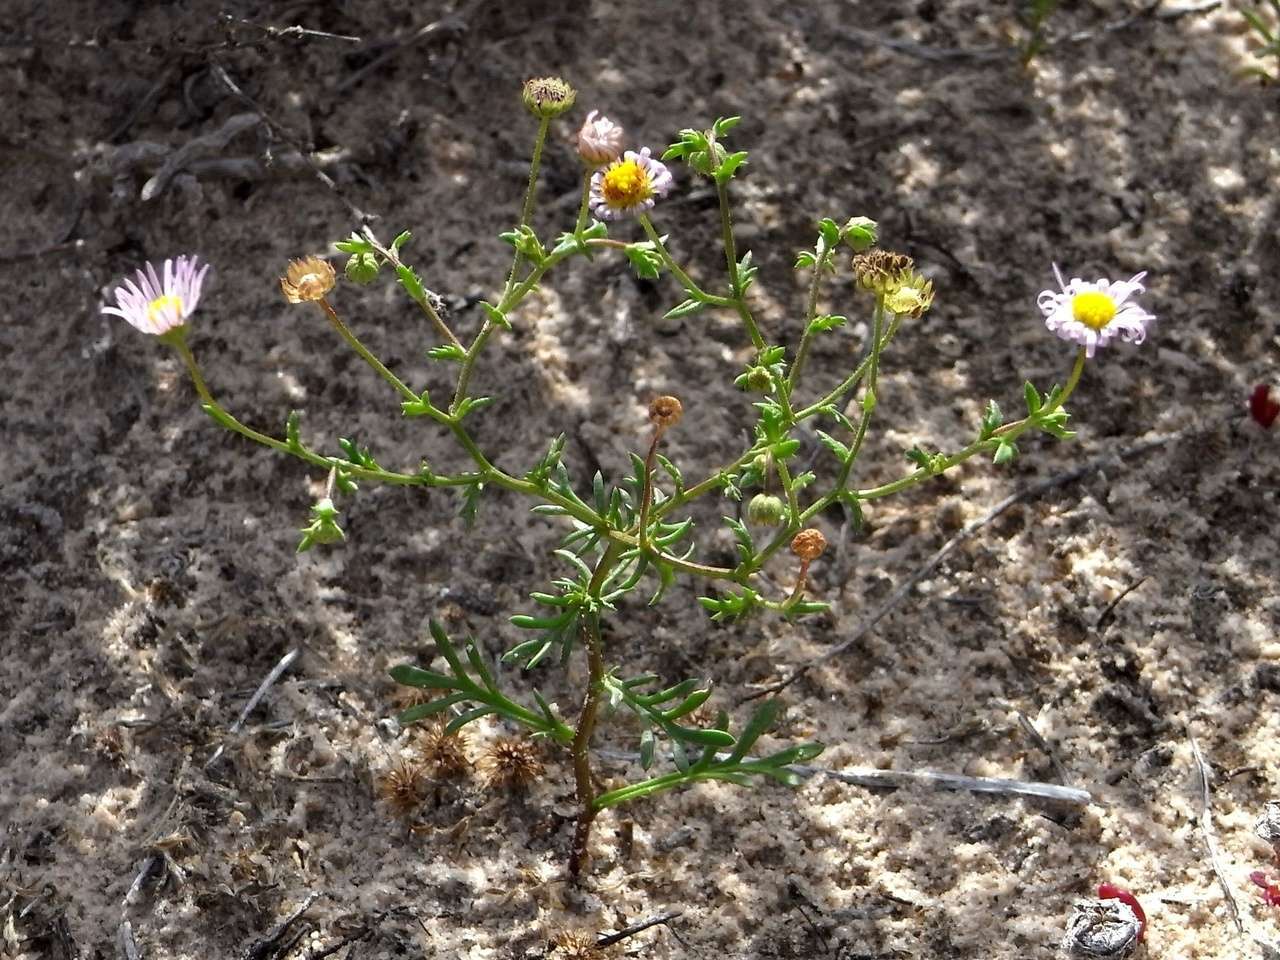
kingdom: Plantae
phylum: Tracheophyta
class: Magnoliopsida
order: Asterales
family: Asteraceae
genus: Brachyscome
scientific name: Brachyscome ciliaris
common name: Variable daisy
